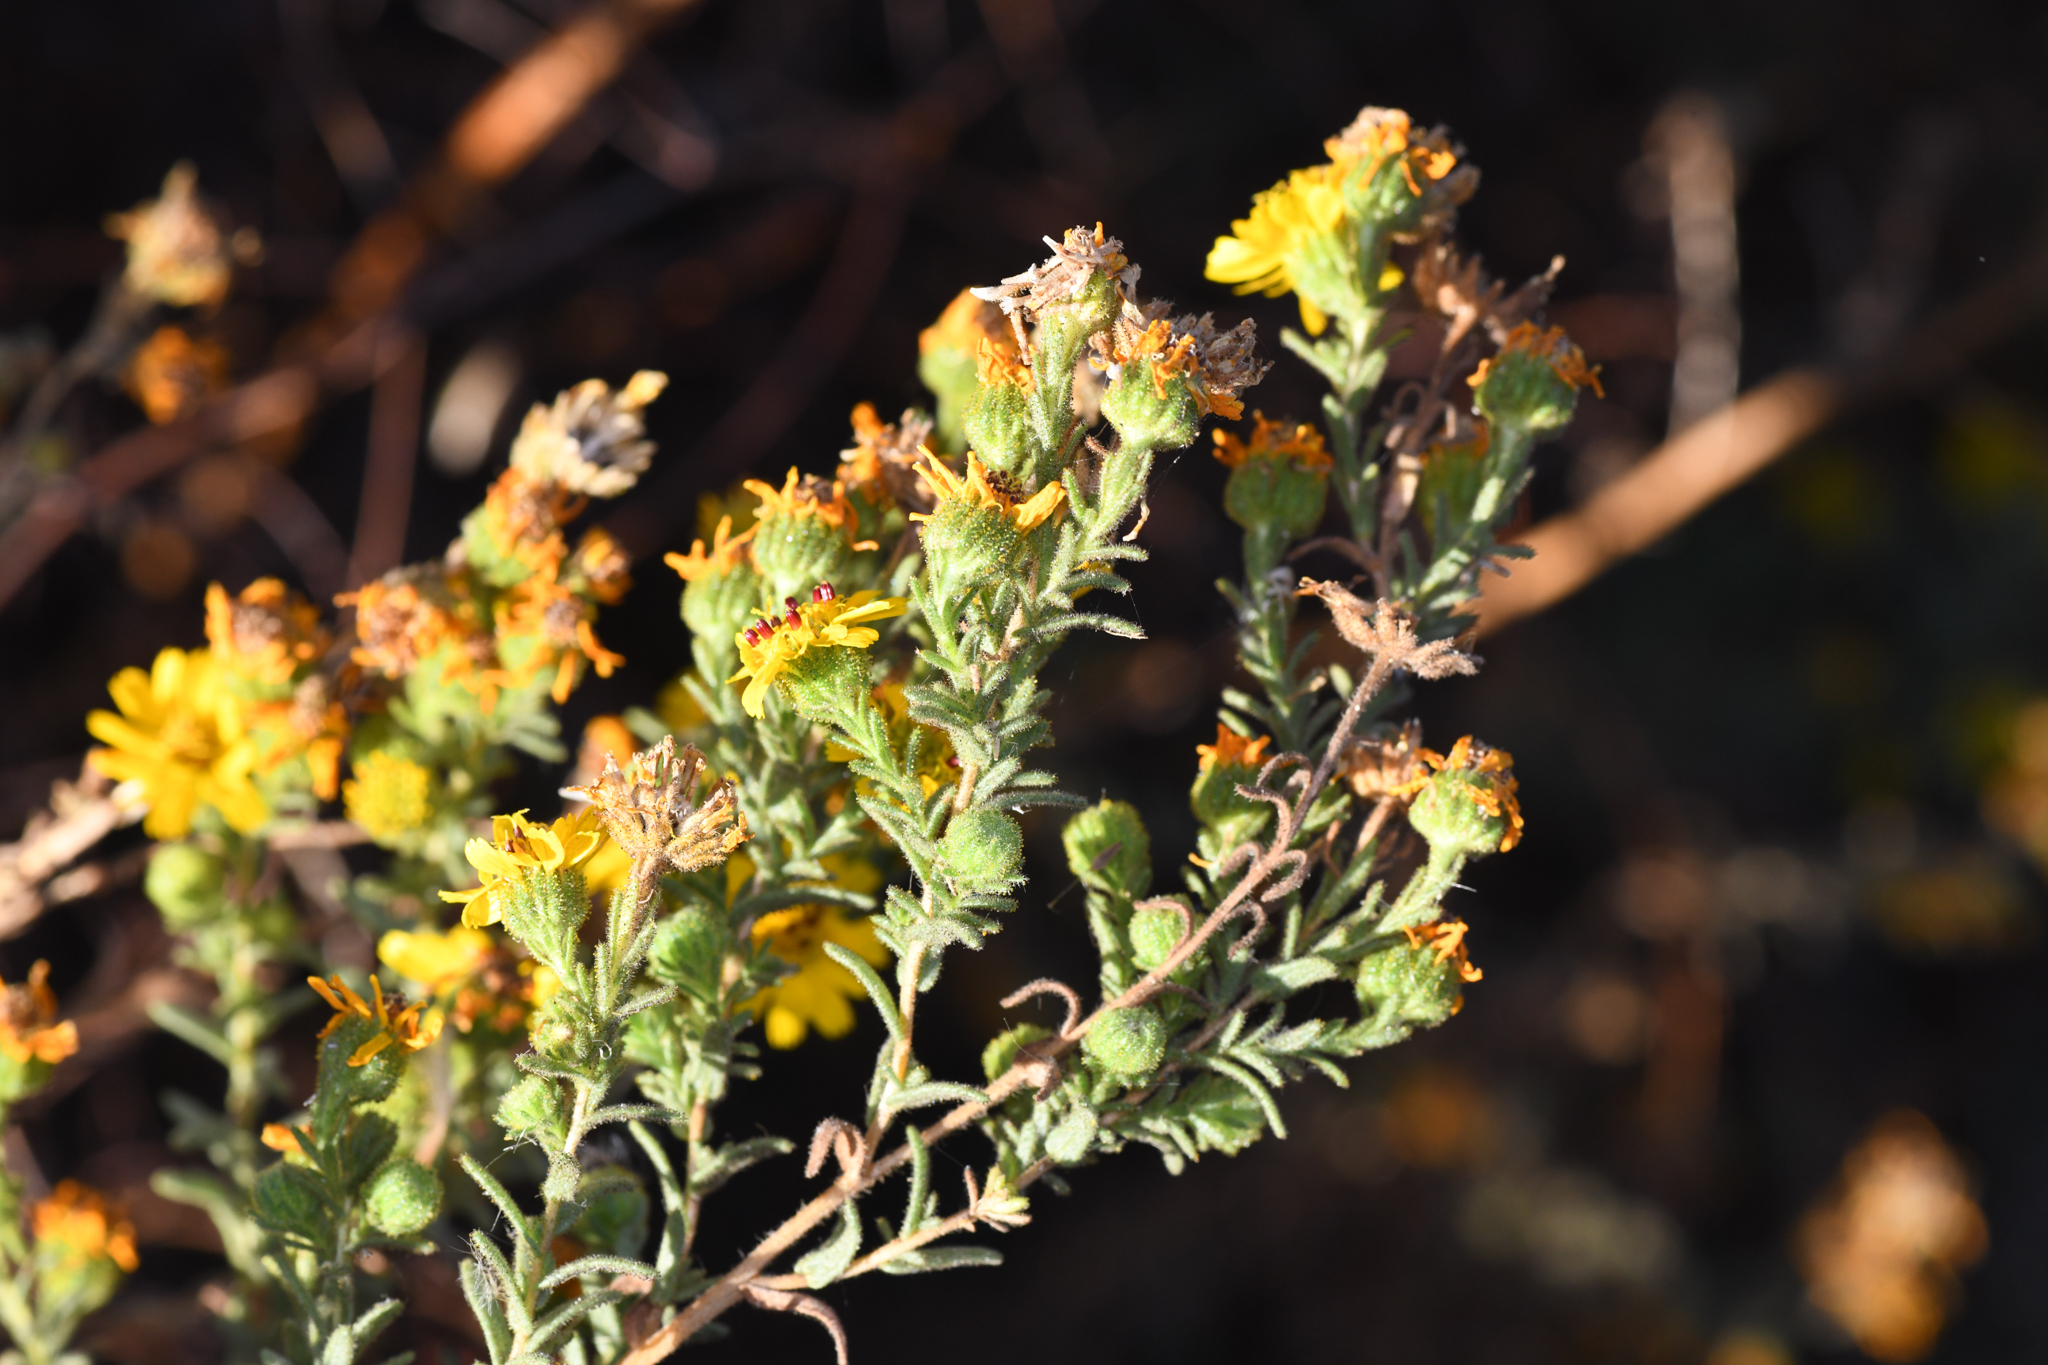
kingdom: Plantae
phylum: Tracheophyta
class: Magnoliopsida
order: Asterales
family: Asteraceae
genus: Deinandra
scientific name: Deinandra floribunda
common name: Tecate tarweed
